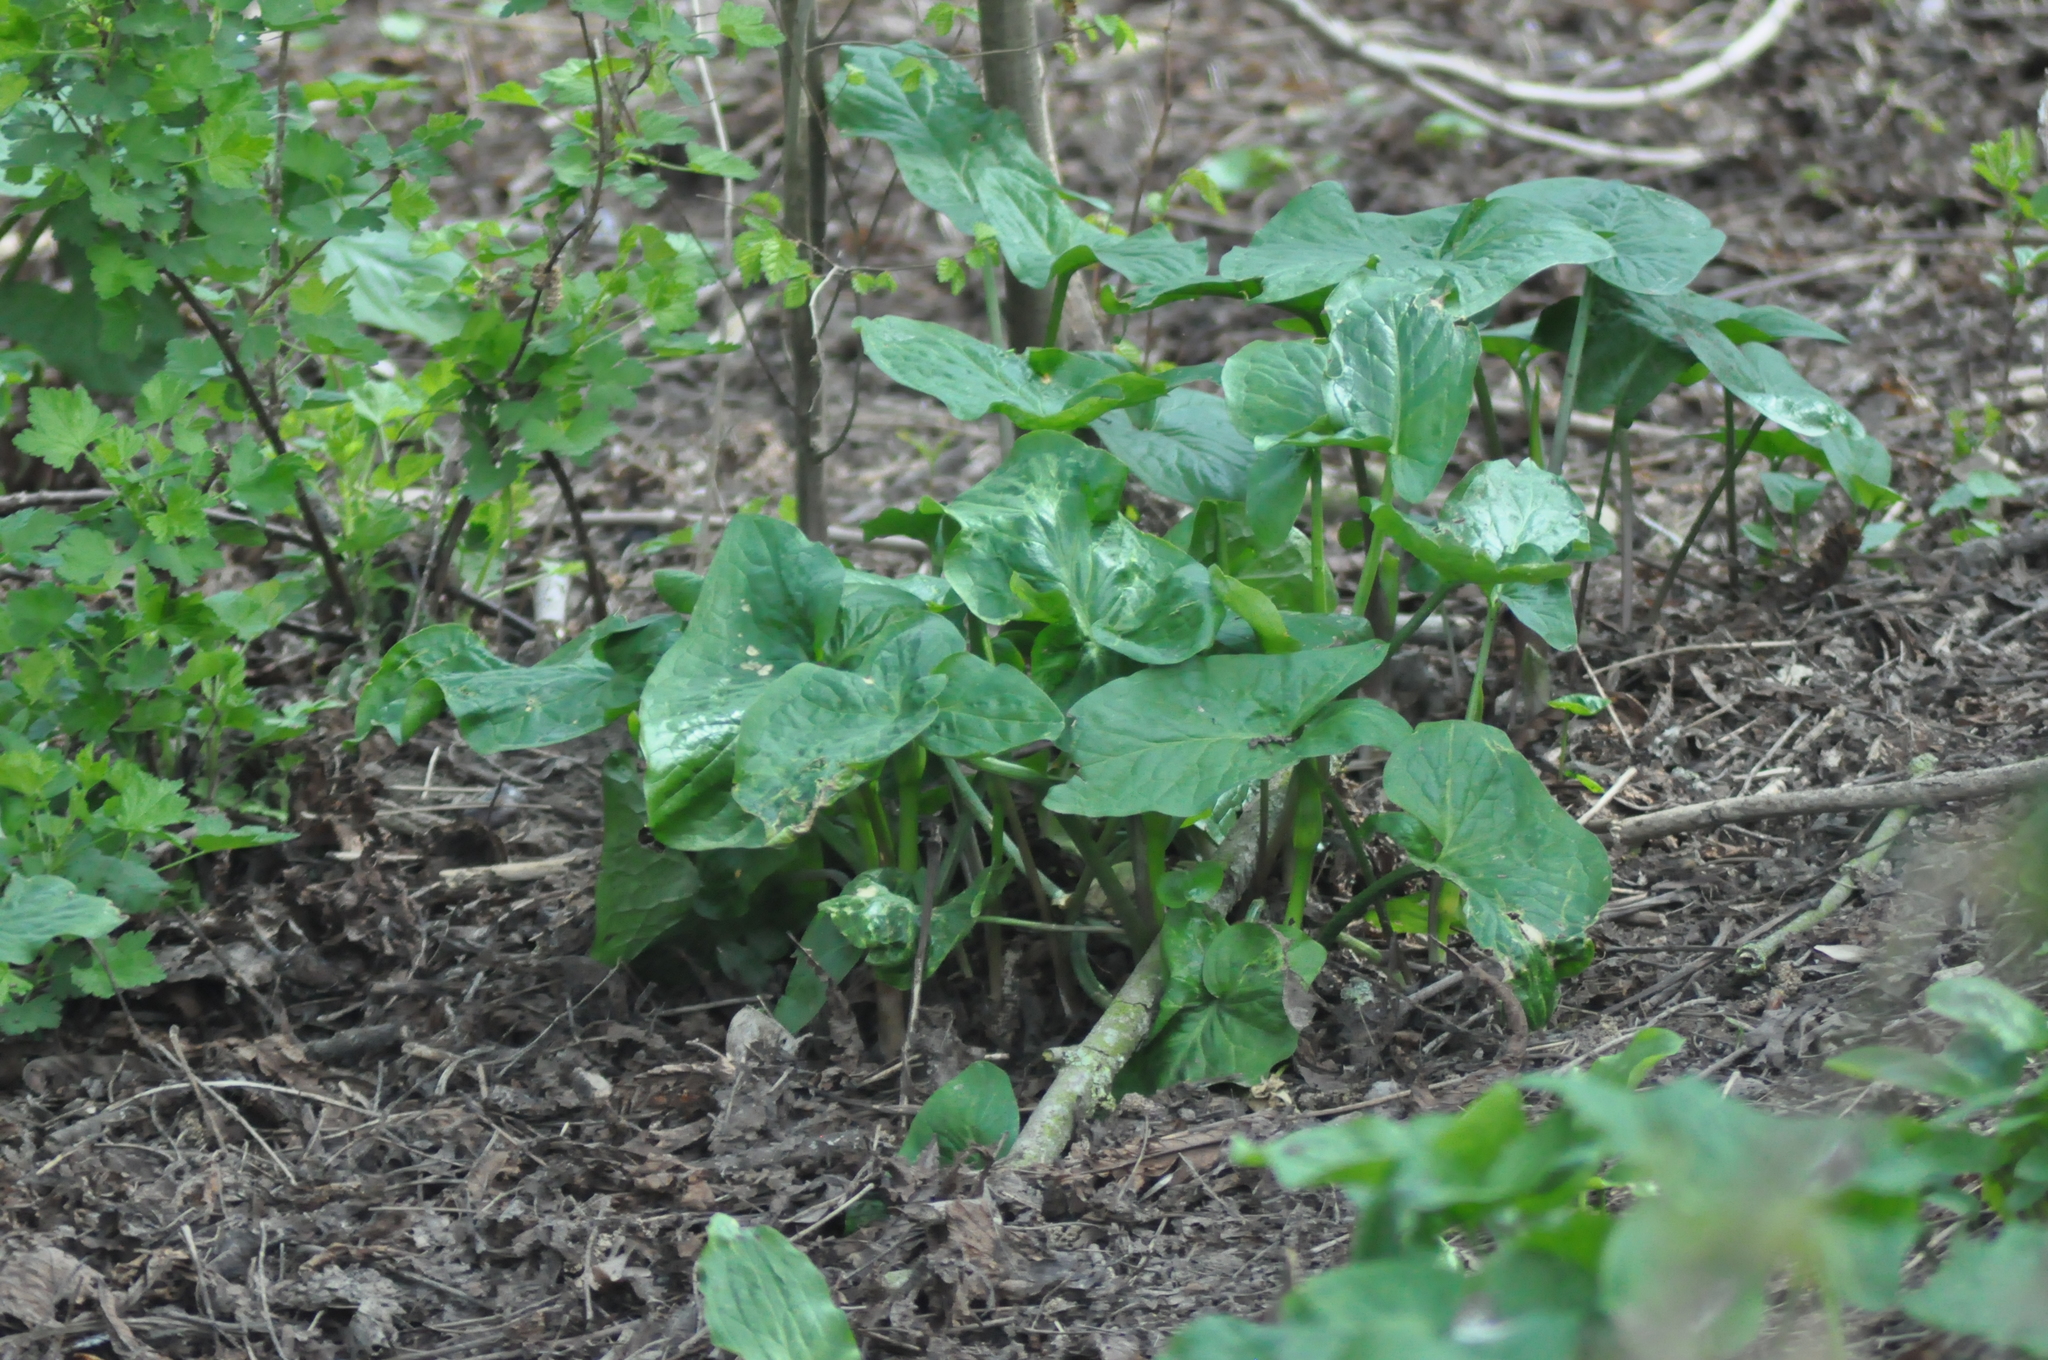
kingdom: Plantae
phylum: Tracheophyta
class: Liliopsida
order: Alismatales
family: Araceae
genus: Arum
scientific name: Arum maculatum
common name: Lords-and-ladies
